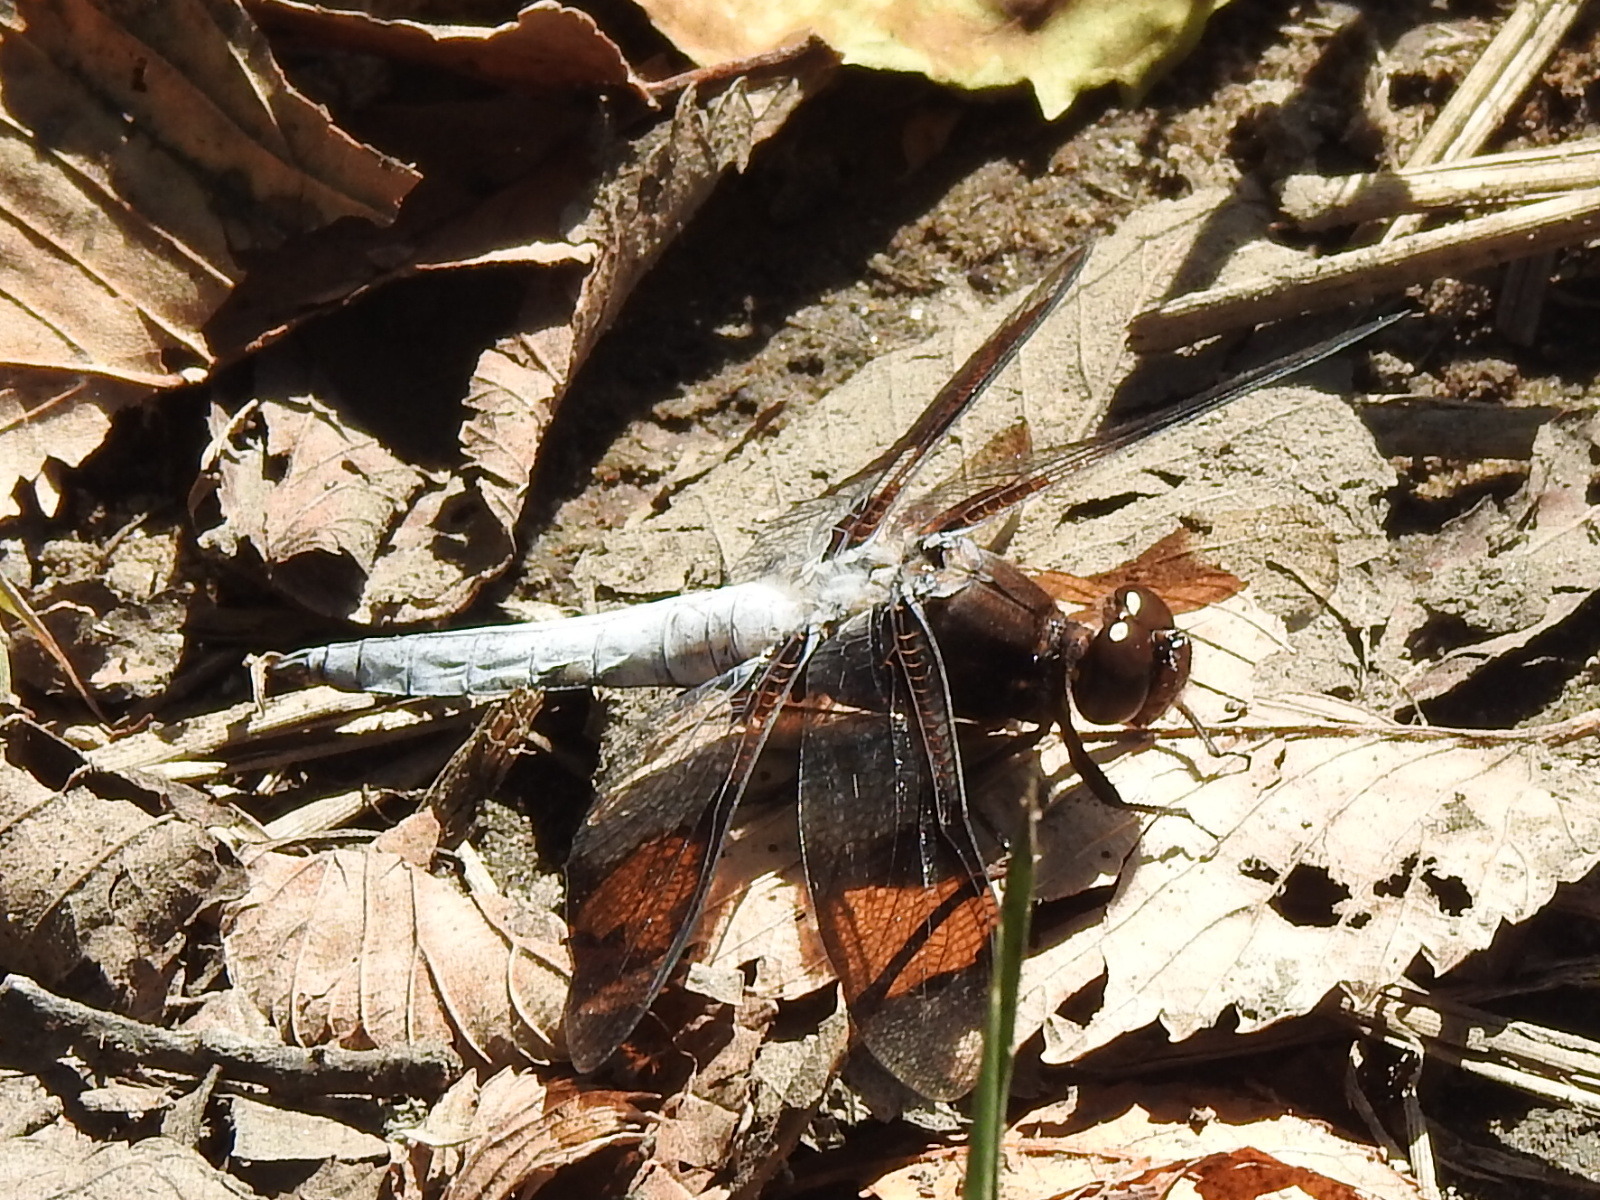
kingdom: Animalia
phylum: Arthropoda
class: Insecta
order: Odonata
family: Libellulidae
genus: Plathemis
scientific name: Plathemis lydia
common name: Common whitetail
